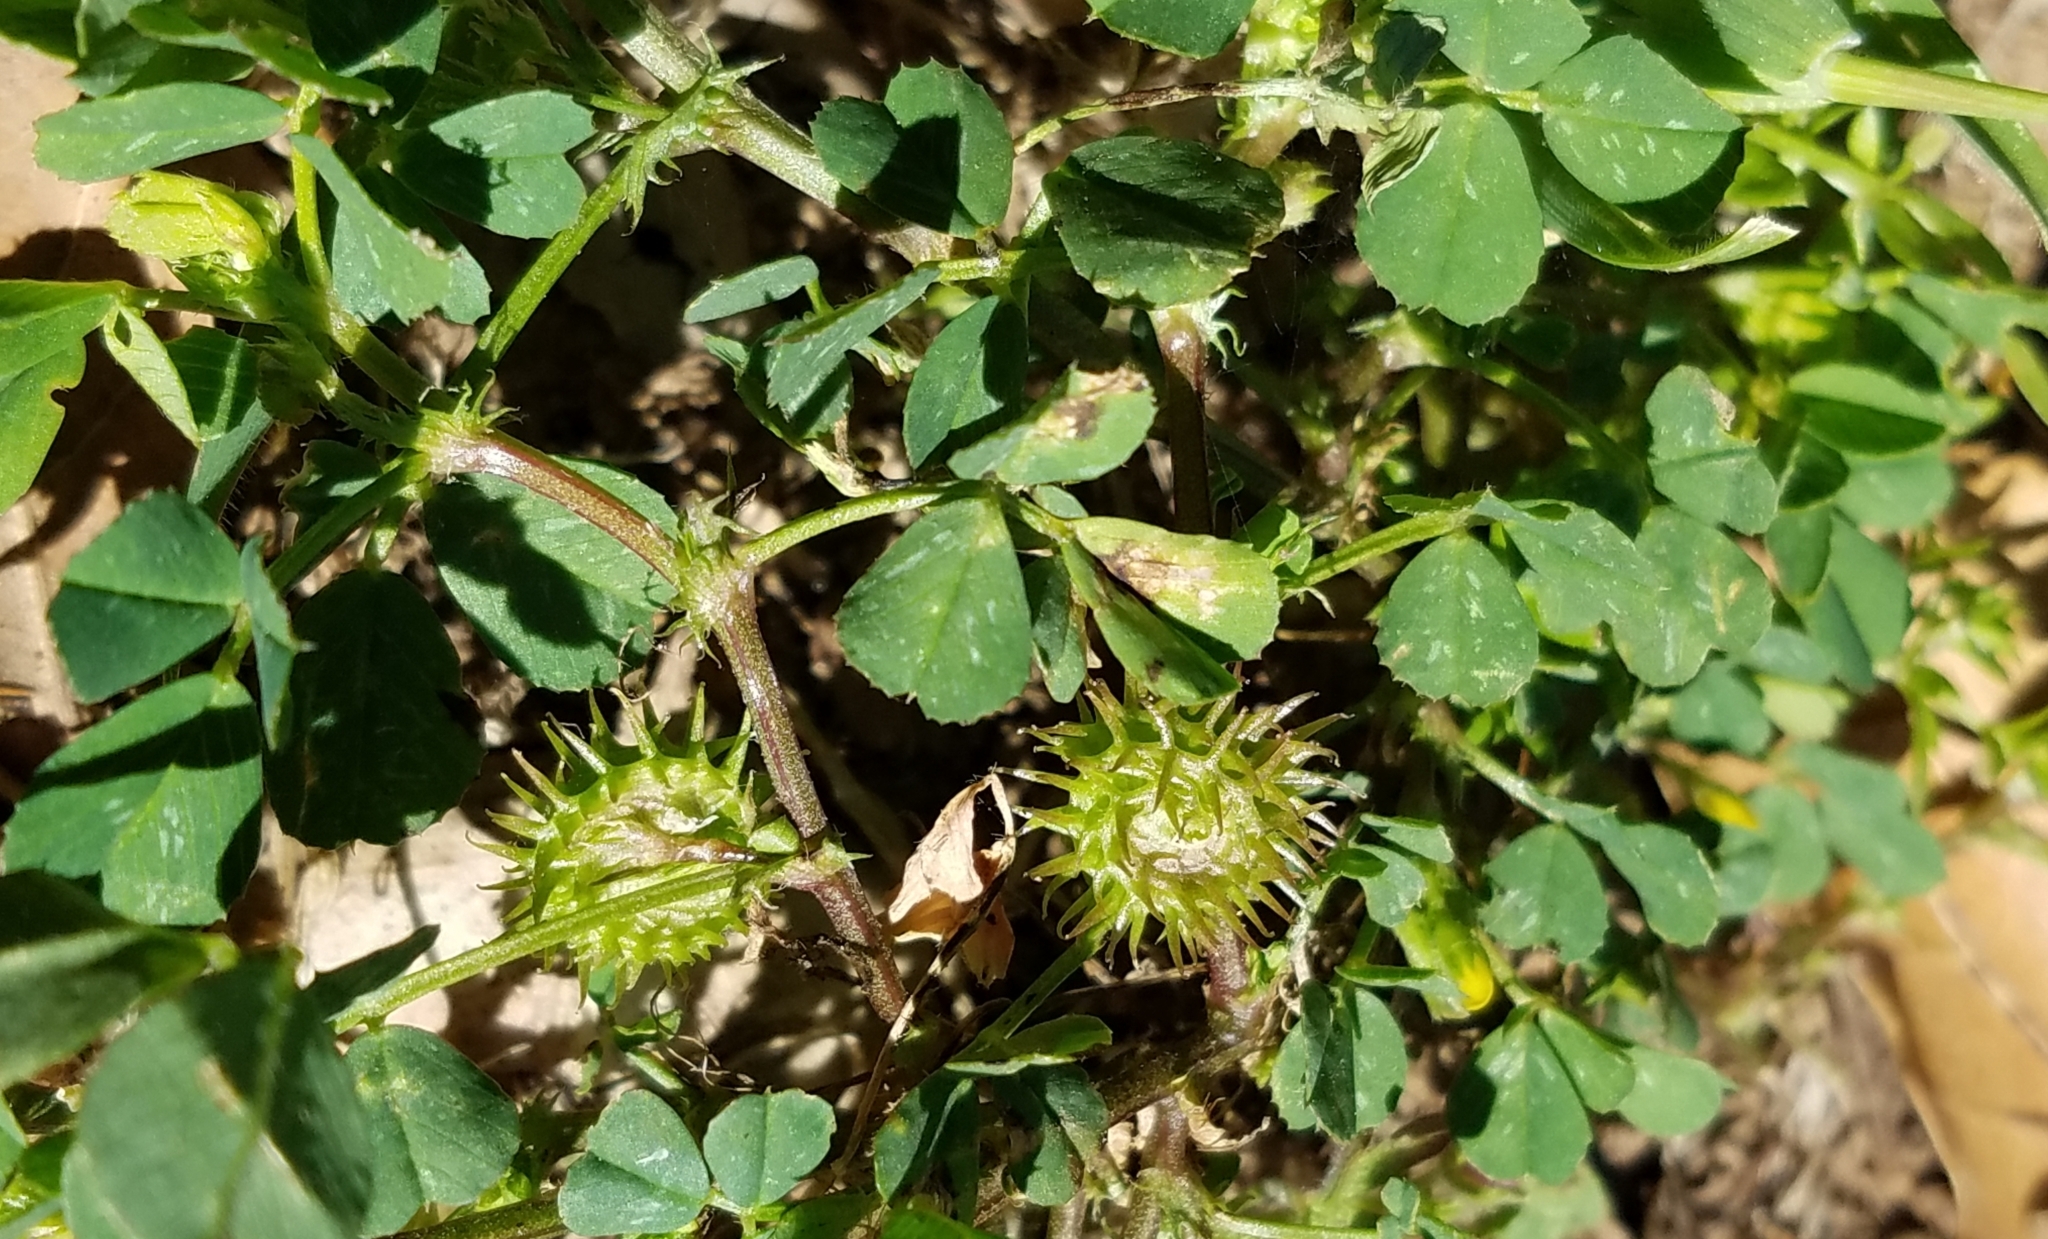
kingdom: Plantae
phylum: Tracheophyta
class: Magnoliopsida
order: Fabales
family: Fabaceae
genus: Medicago
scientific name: Medicago polymorpha
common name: Burclover
